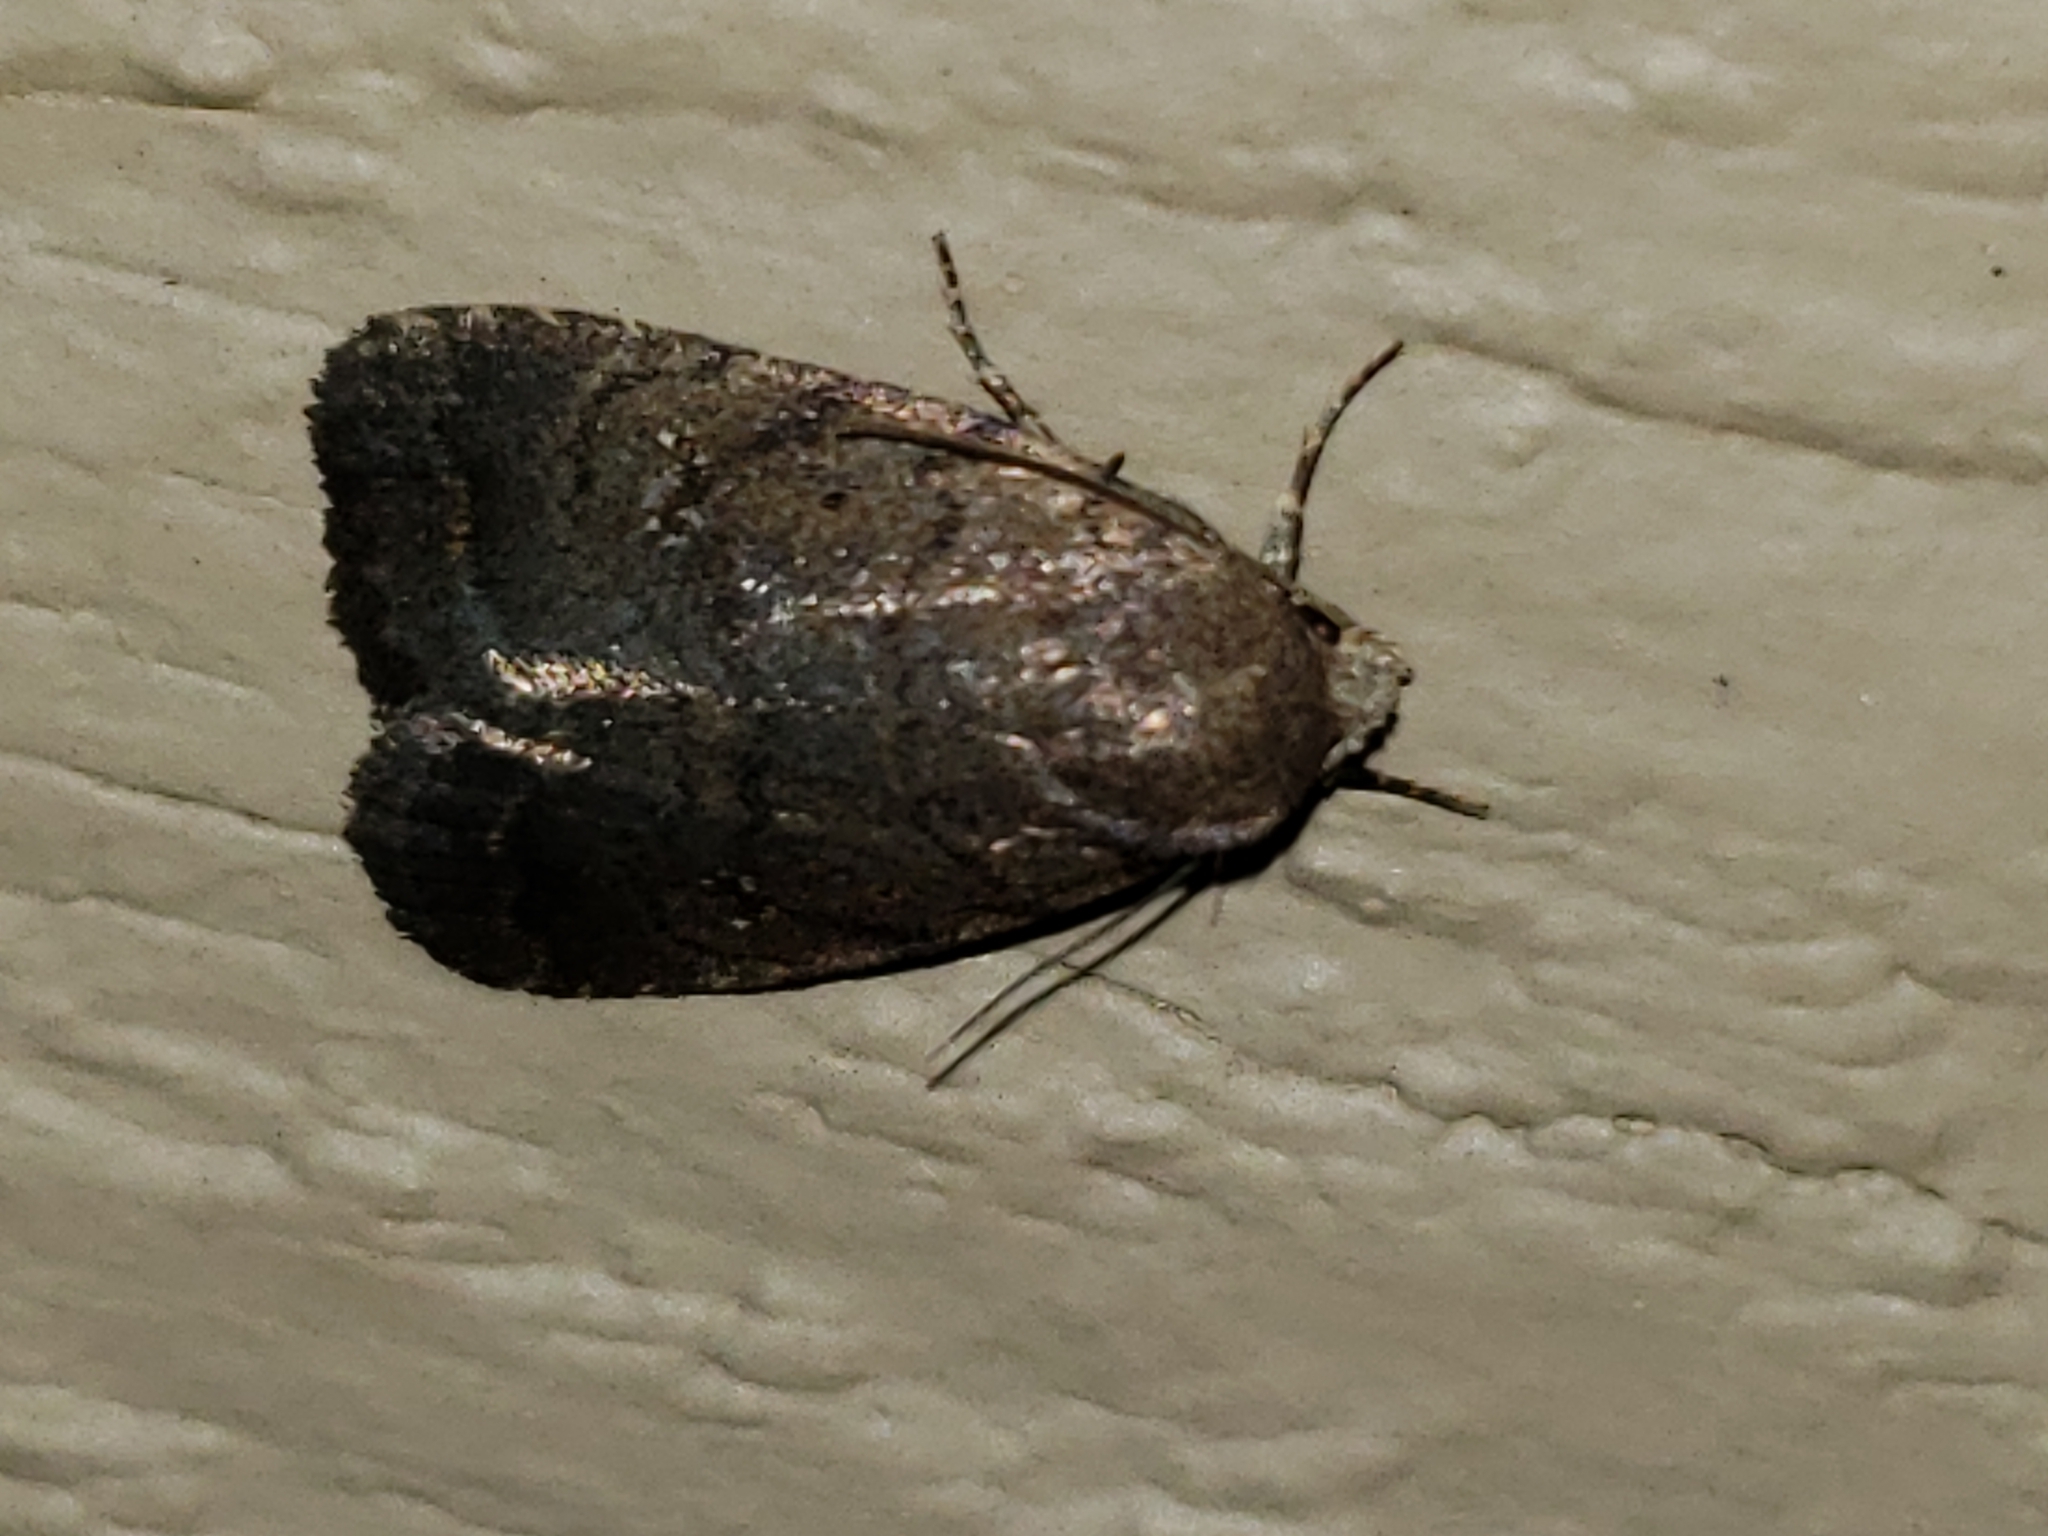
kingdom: Animalia
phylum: Arthropoda
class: Insecta
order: Lepidoptera
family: Noctuidae
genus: Athetis
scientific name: Athetis tarda
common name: Slowpoke moth
